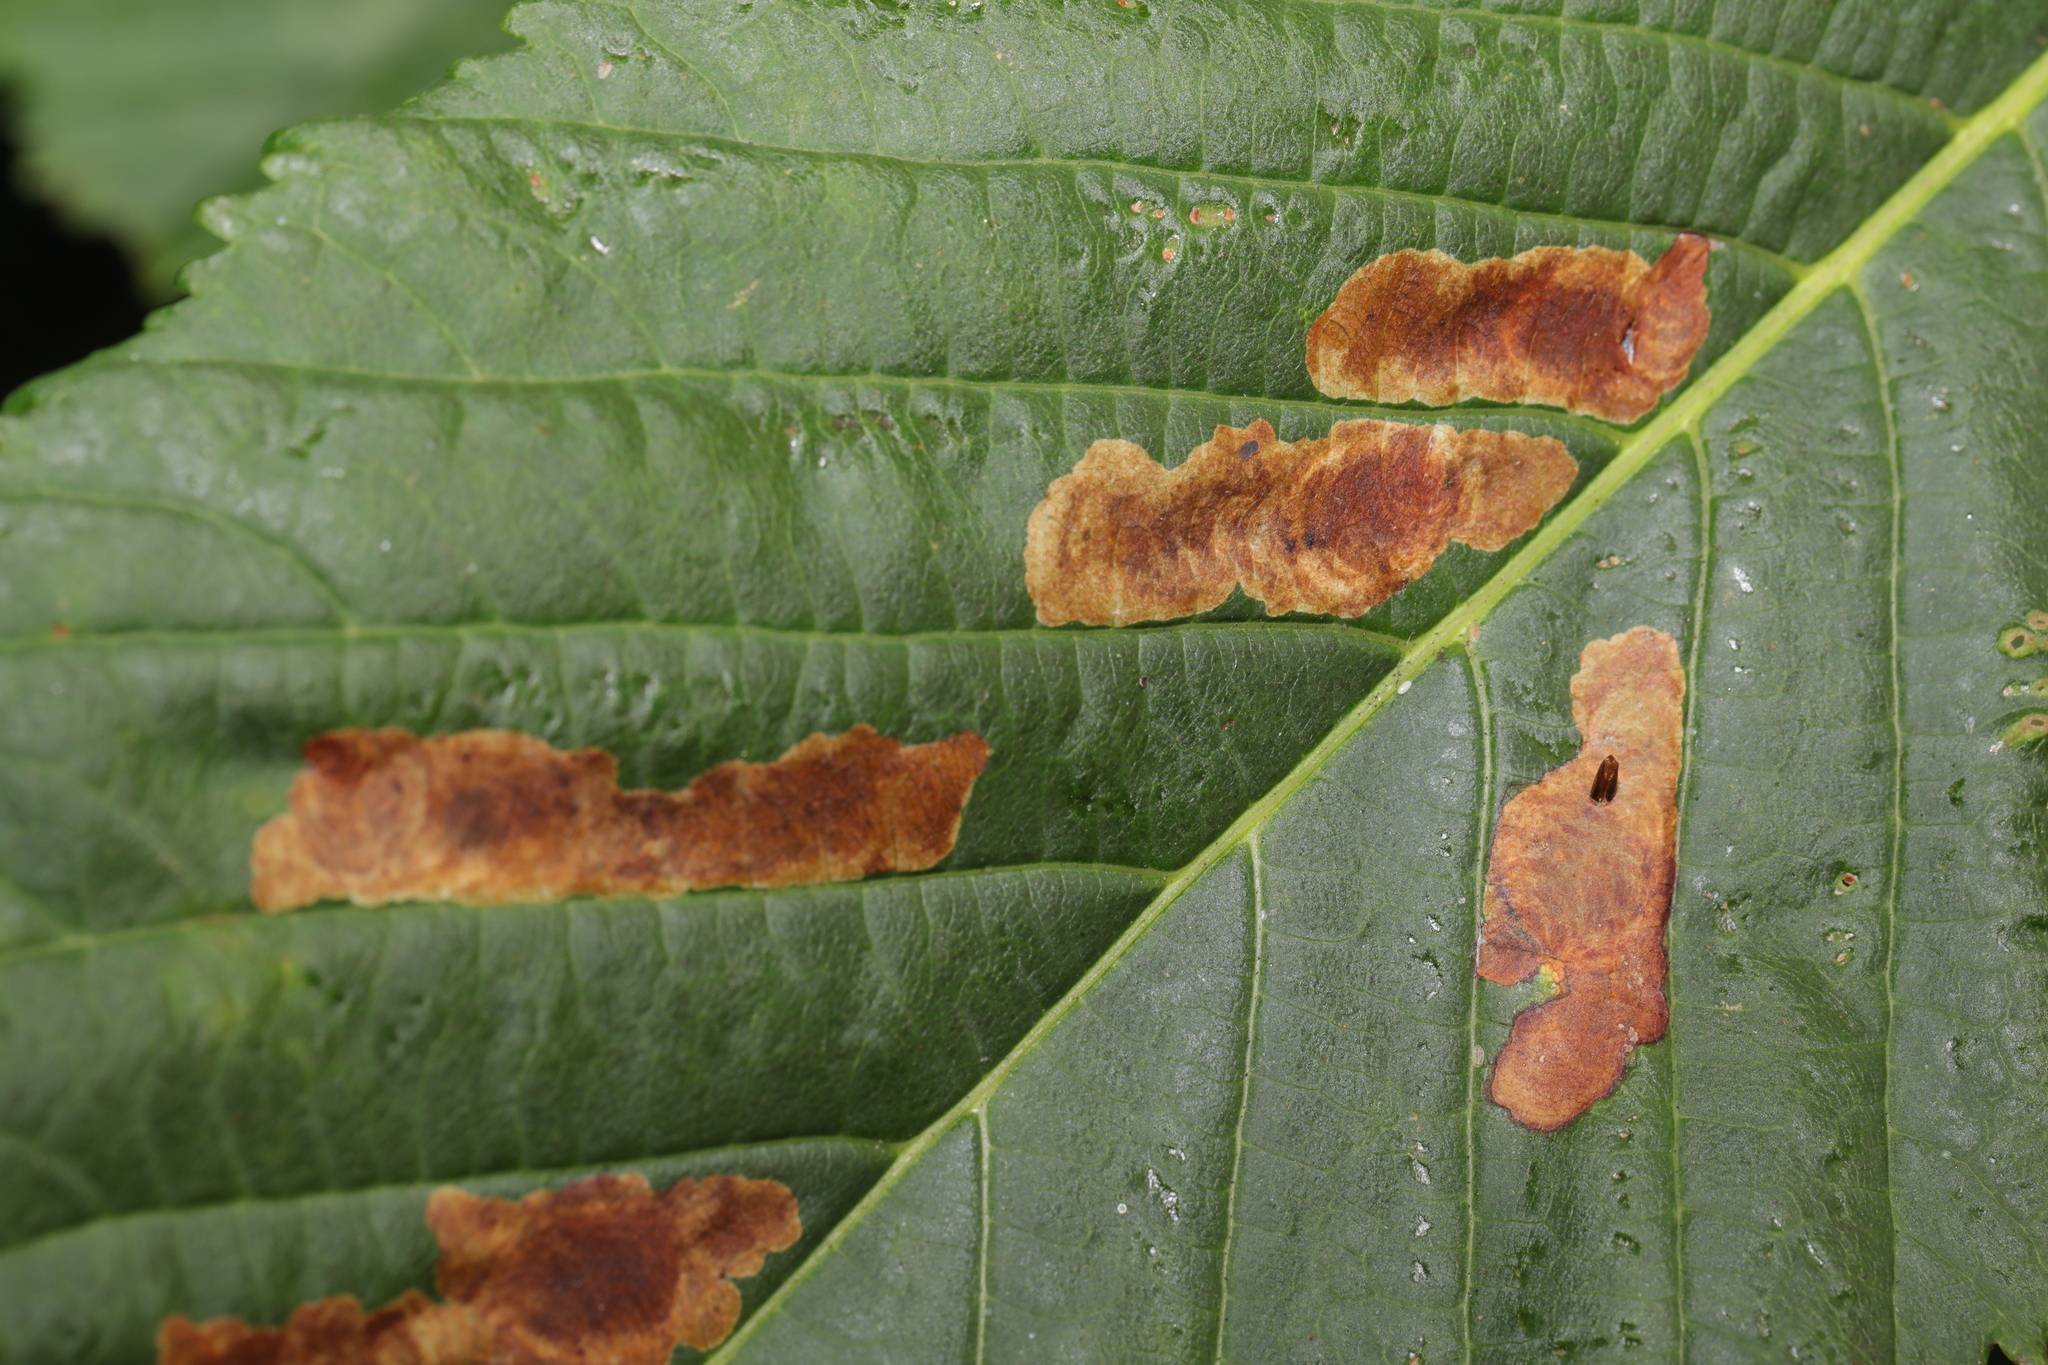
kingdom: Animalia
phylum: Arthropoda
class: Insecta
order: Lepidoptera
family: Gracillariidae
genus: Cameraria
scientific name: Cameraria ohridella
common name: Horse-chestnut leaf-miner
